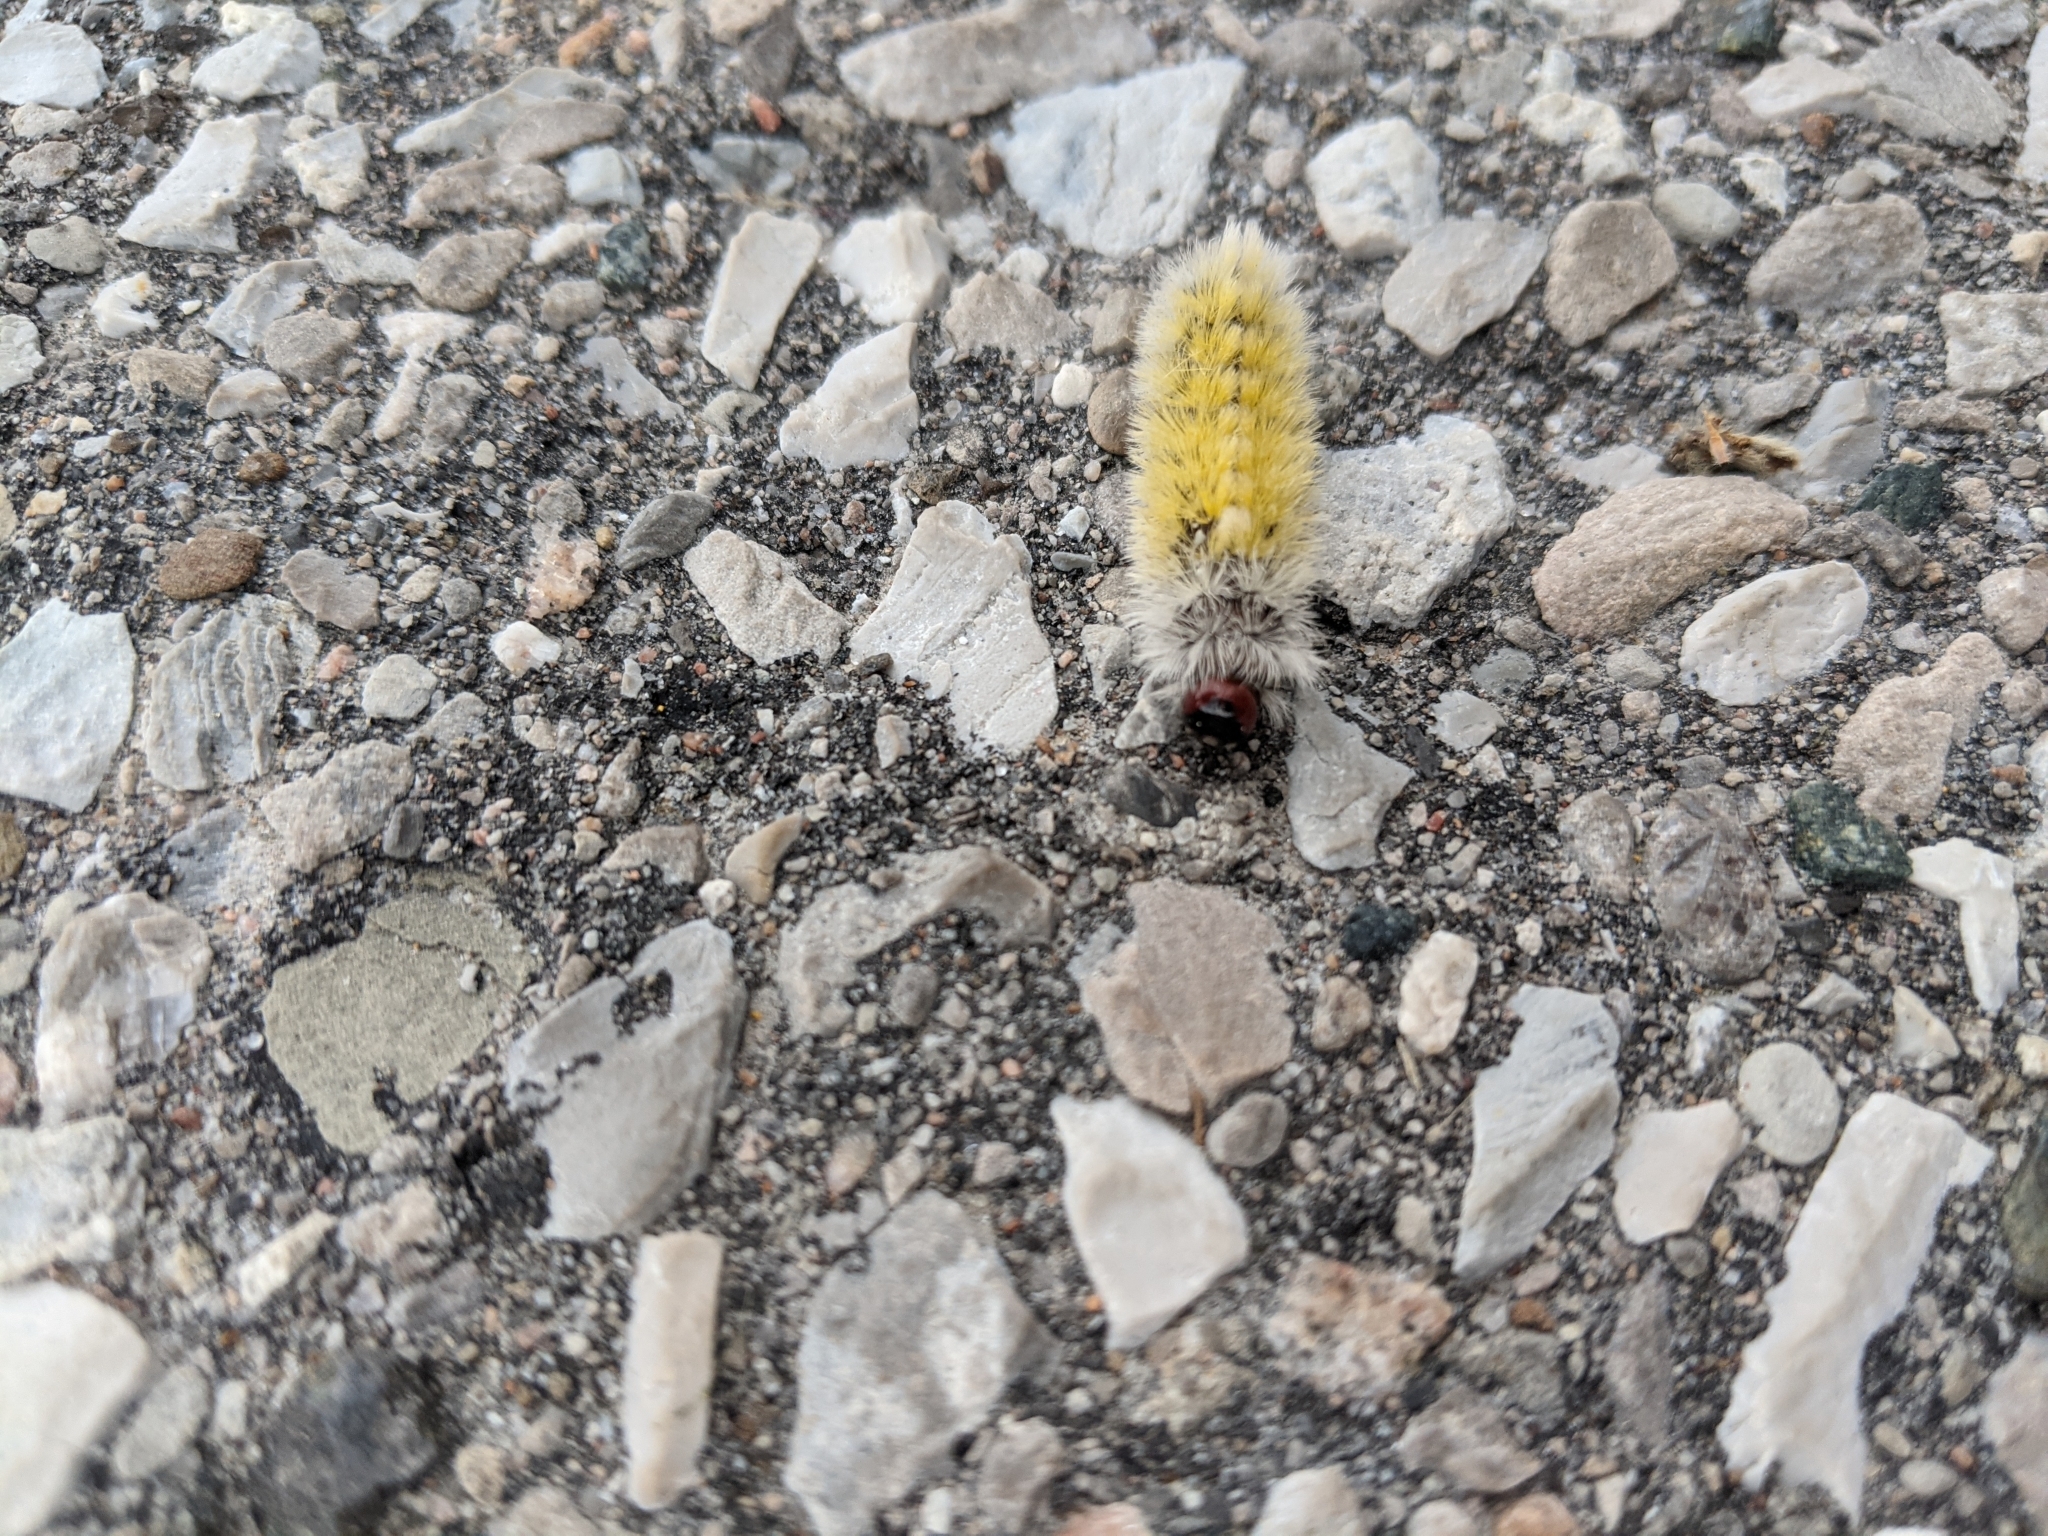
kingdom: Animalia
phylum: Arthropoda
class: Insecta
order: Lepidoptera
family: Erebidae
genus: Ctenucha
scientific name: Ctenucha virginica
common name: Virginia ctenucha moth
